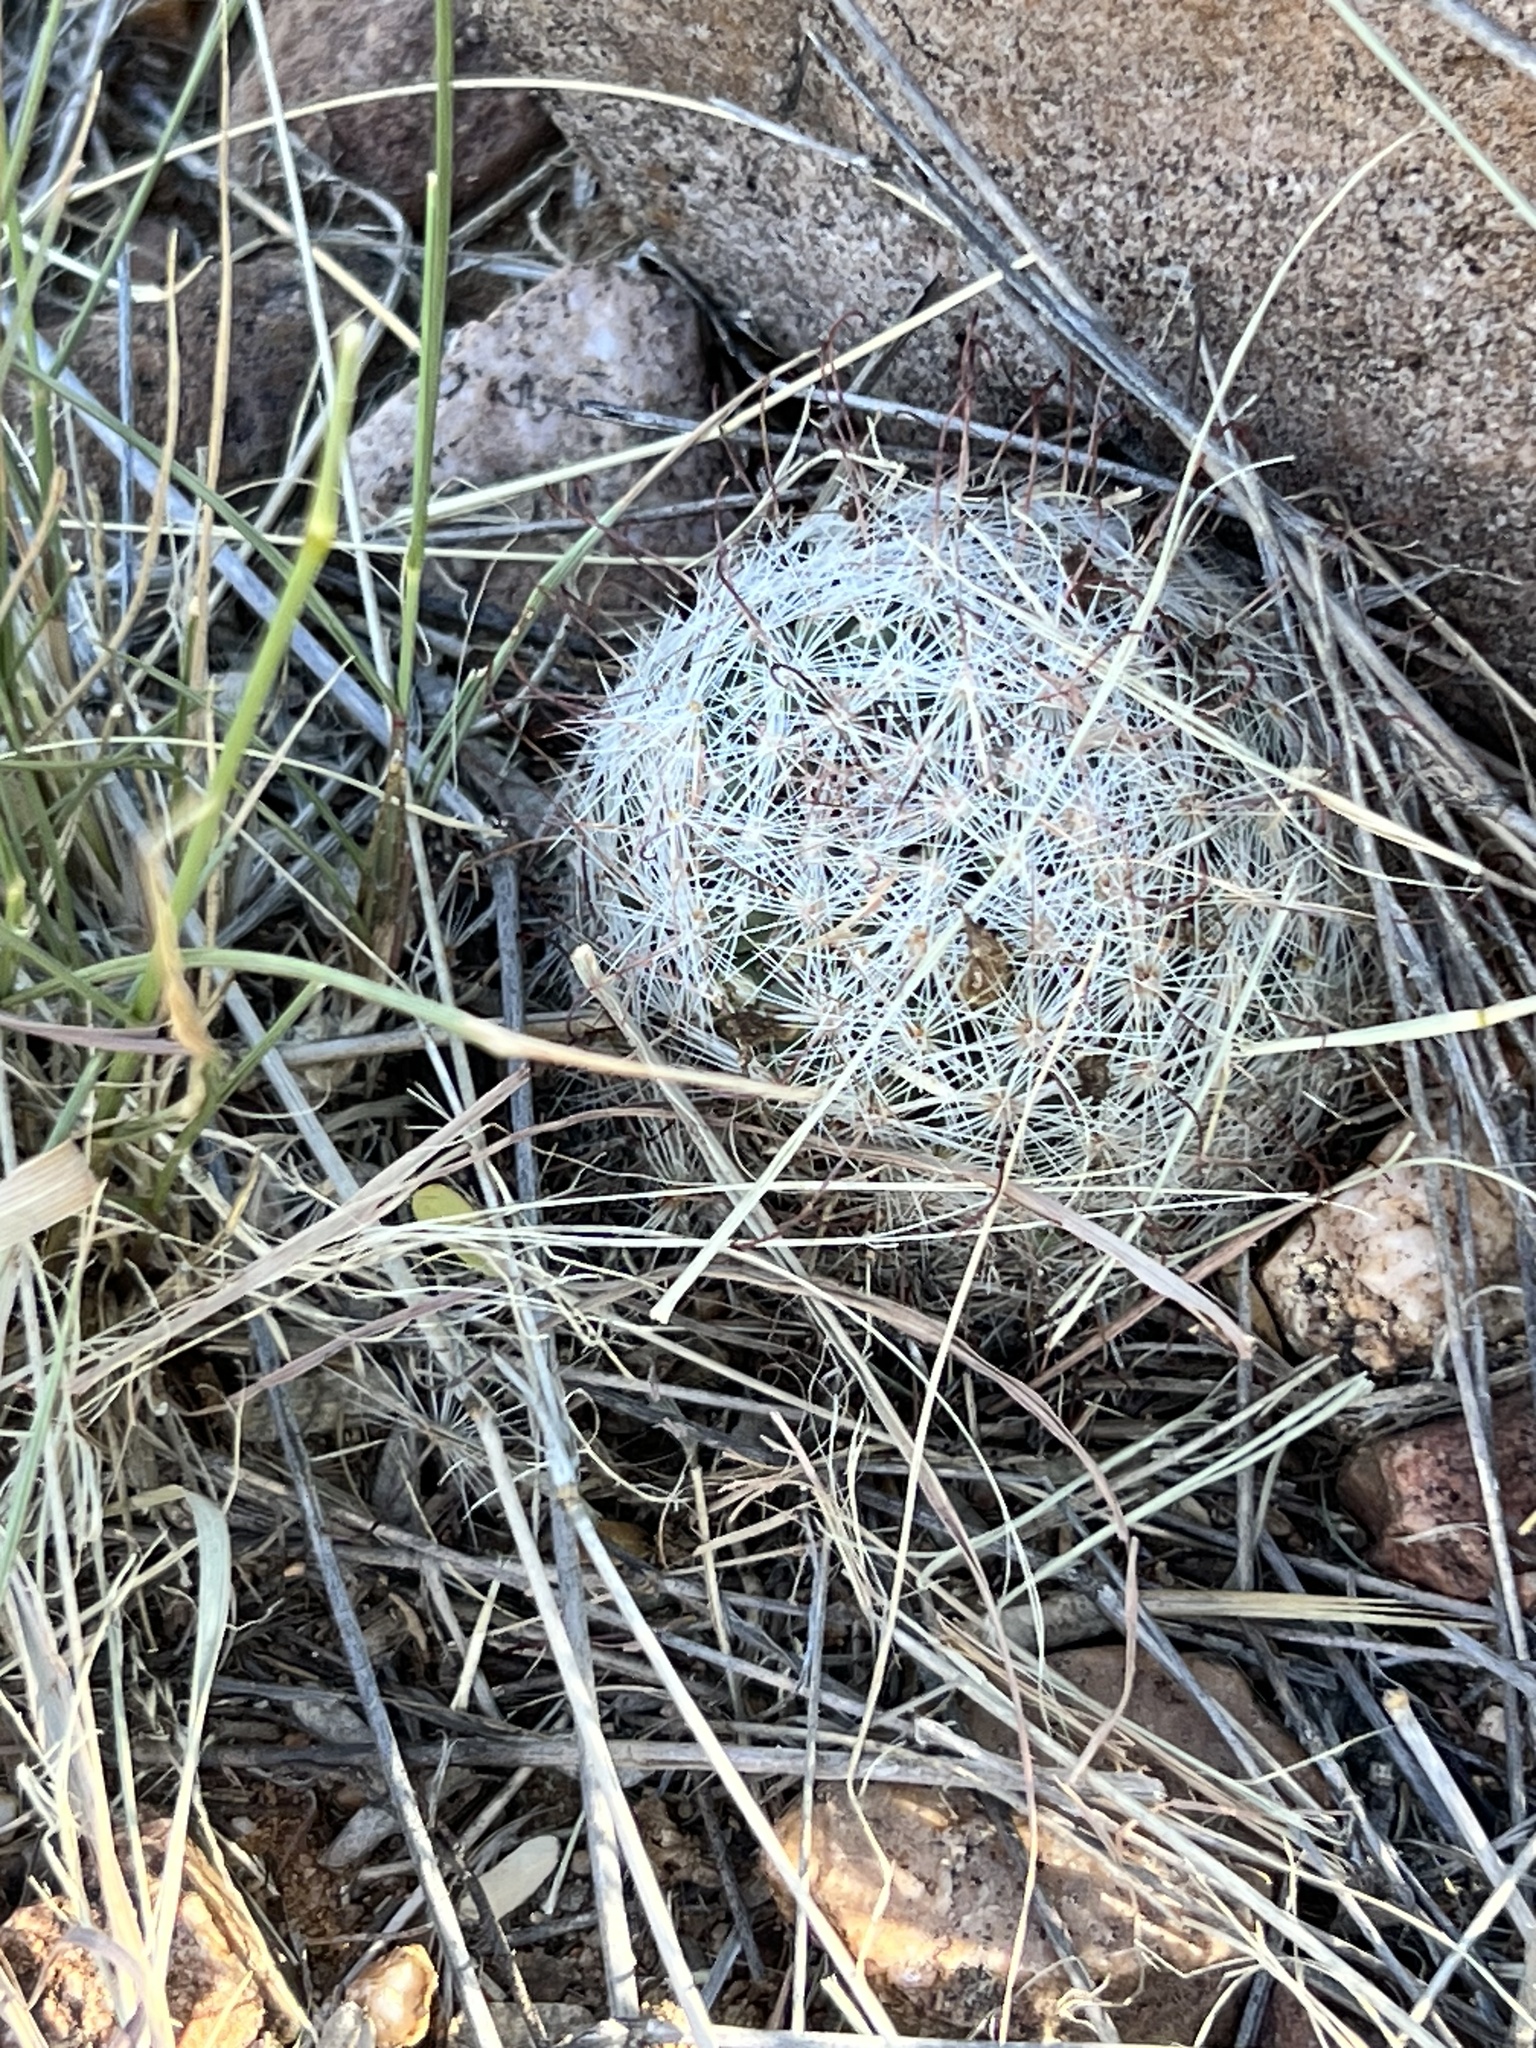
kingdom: Plantae
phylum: Tracheophyta
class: Magnoliopsida
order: Caryophyllales
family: Cactaceae
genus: Cochemiea
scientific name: Cochemiea grahamii
